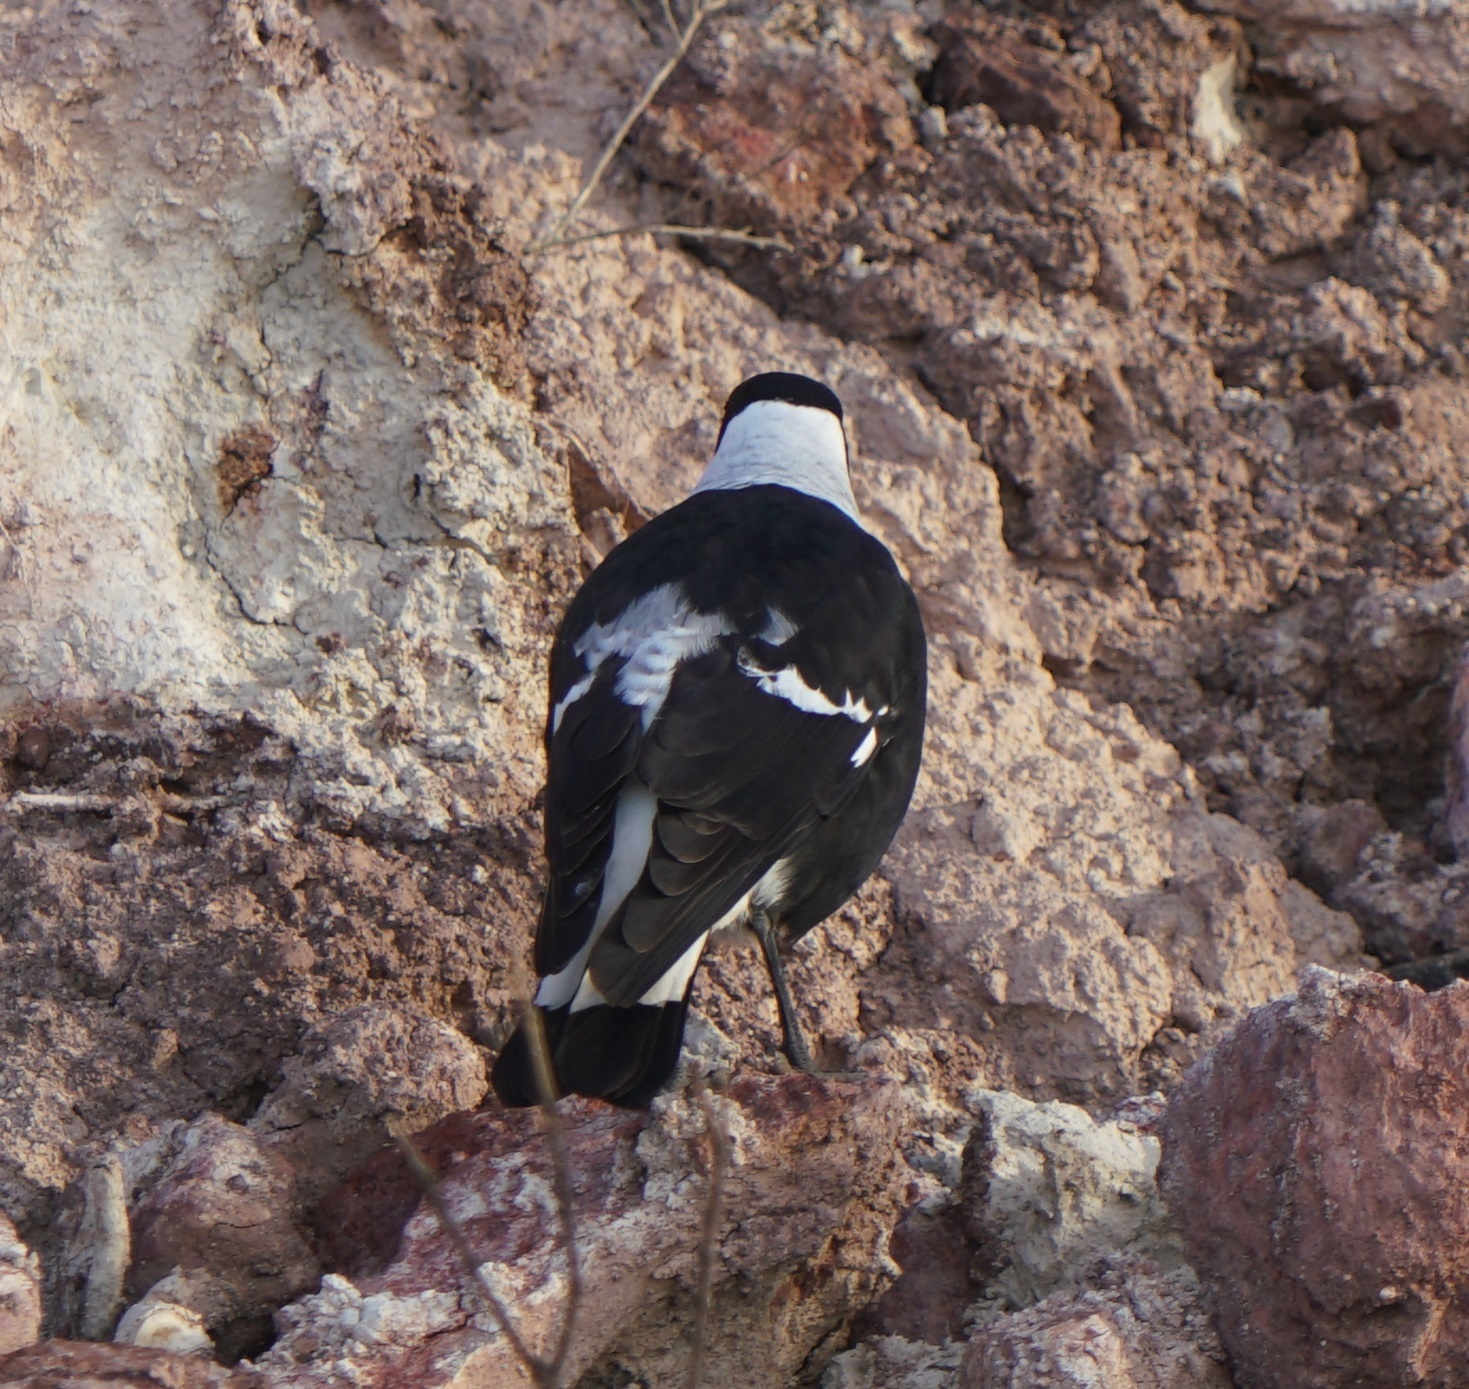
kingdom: Animalia
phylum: Chordata
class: Aves
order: Passeriformes
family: Cracticidae
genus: Gymnorhina
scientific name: Gymnorhina tibicen
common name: Australian magpie
